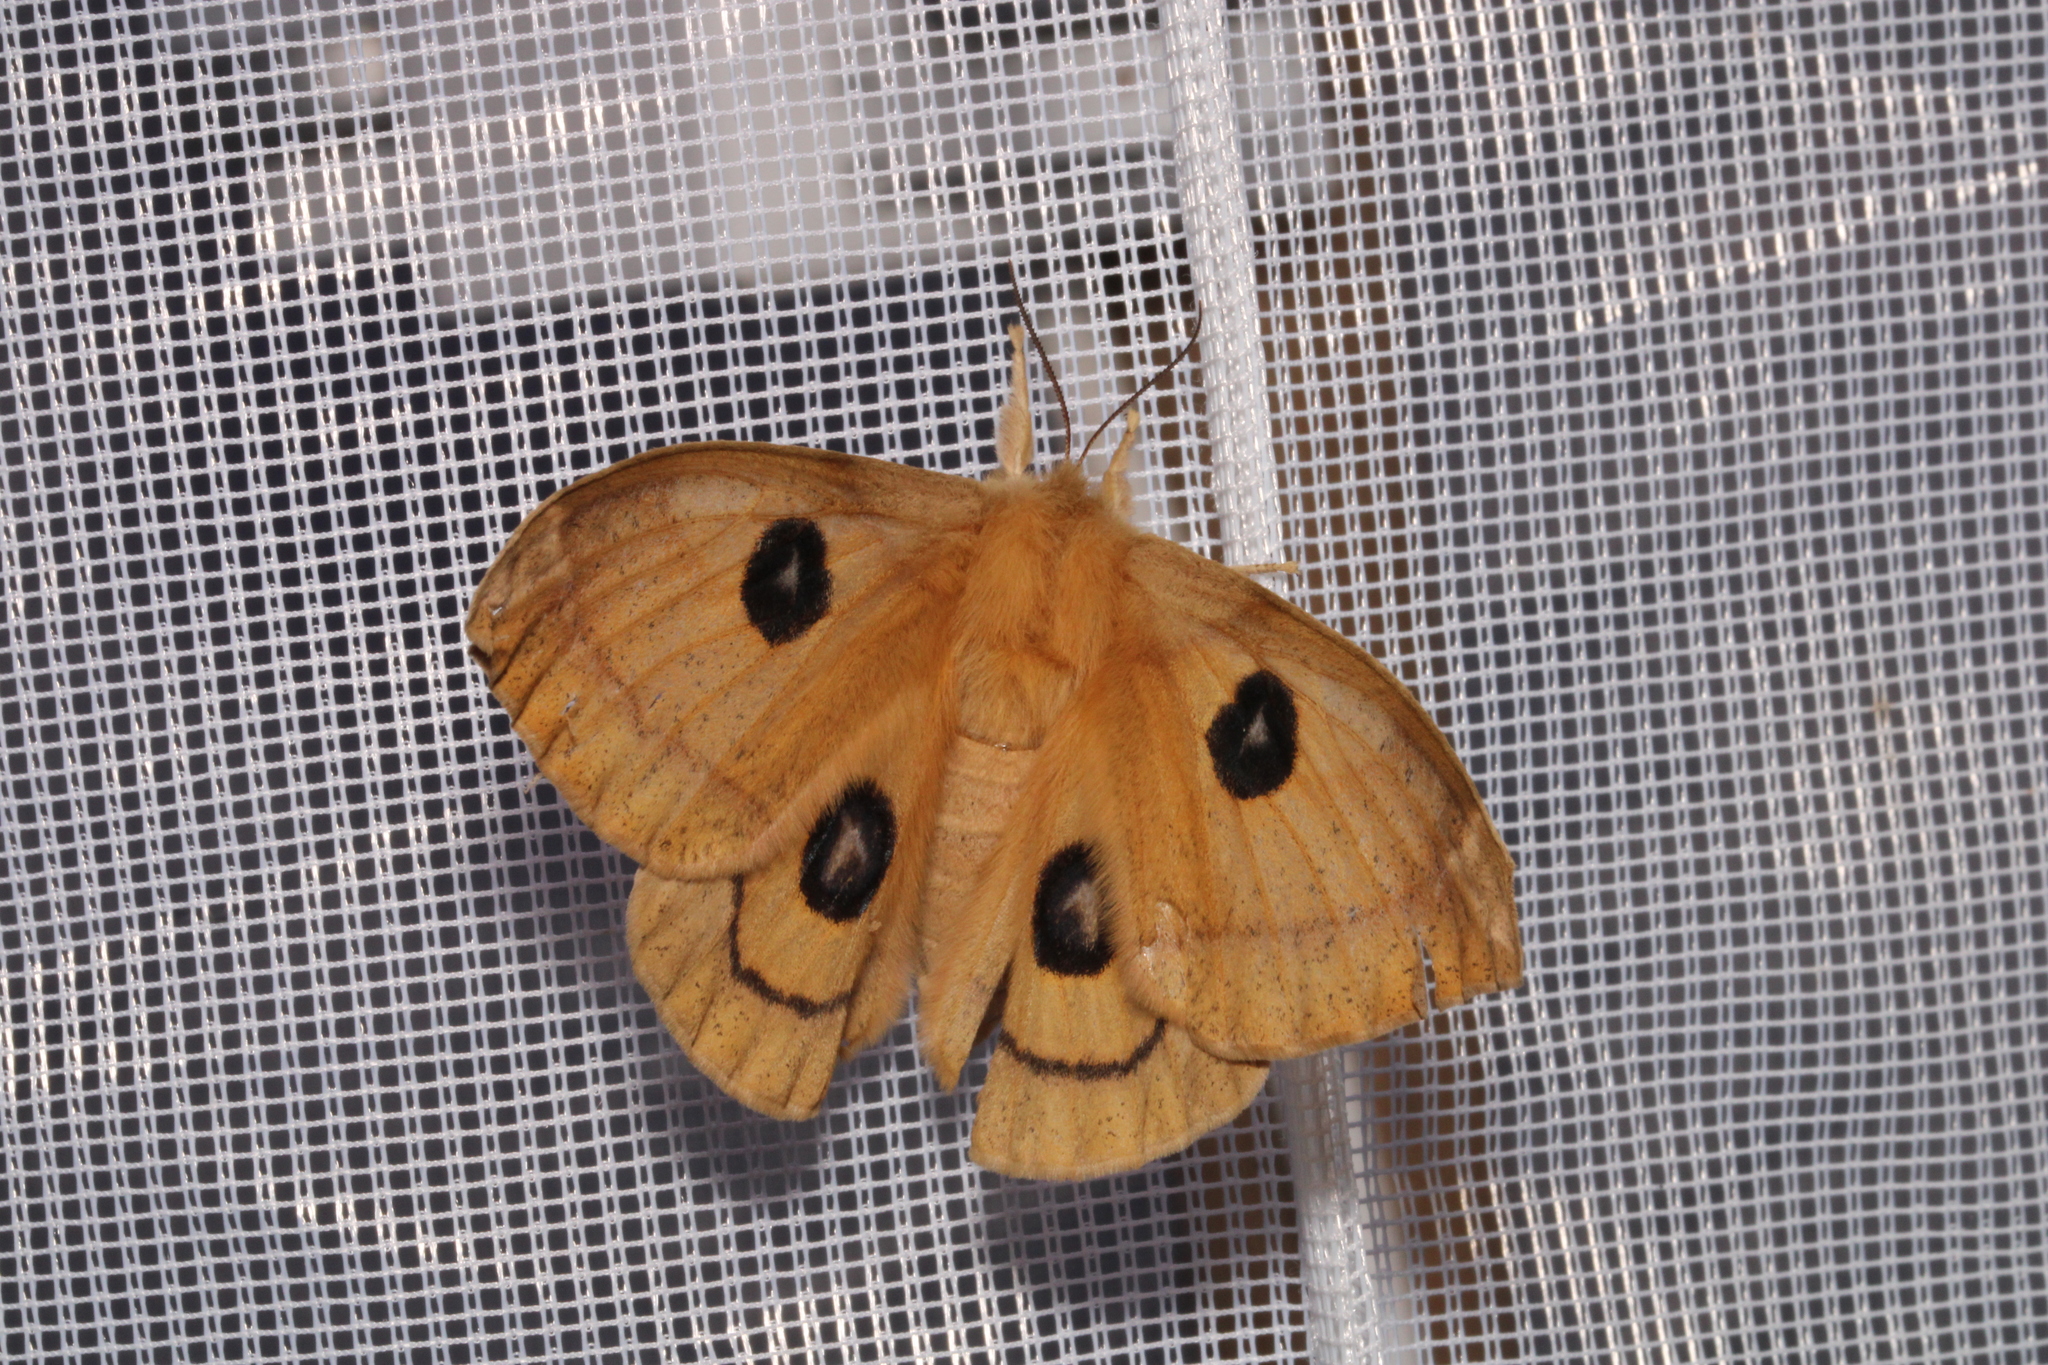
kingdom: Animalia
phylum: Arthropoda
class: Insecta
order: Lepidoptera
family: Saturniidae
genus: Aglia
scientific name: Aglia tau
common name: Tau emperor
